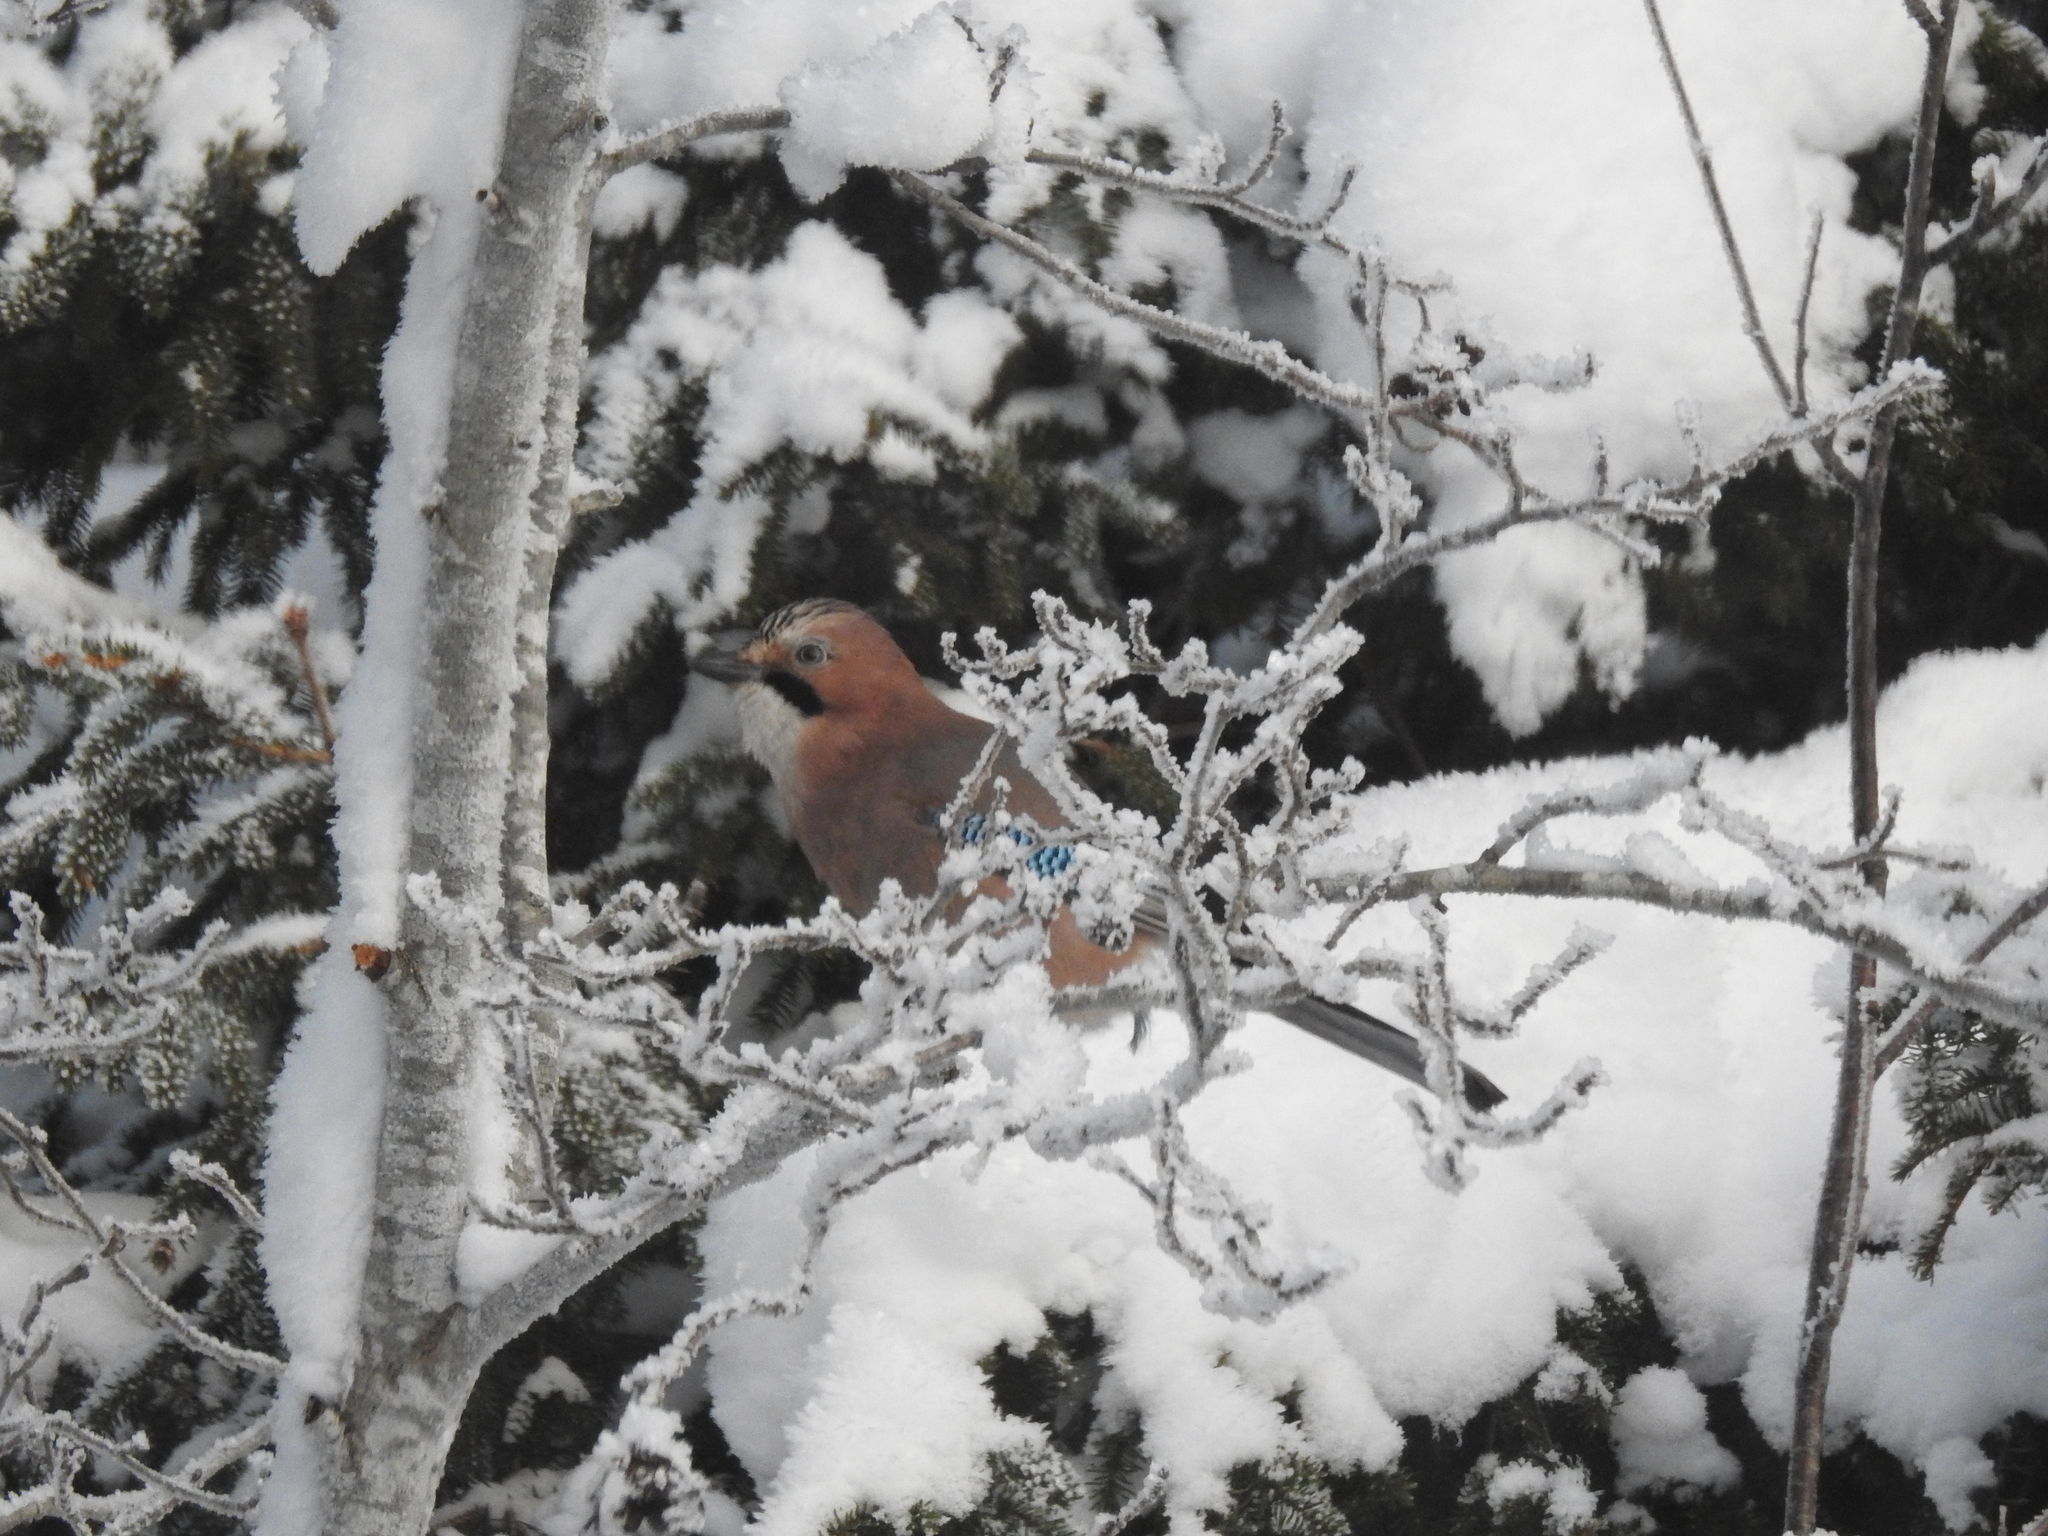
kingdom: Animalia
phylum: Chordata
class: Aves
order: Passeriformes
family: Corvidae
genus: Garrulus
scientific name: Garrulus glandarius
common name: Eurasian jay
